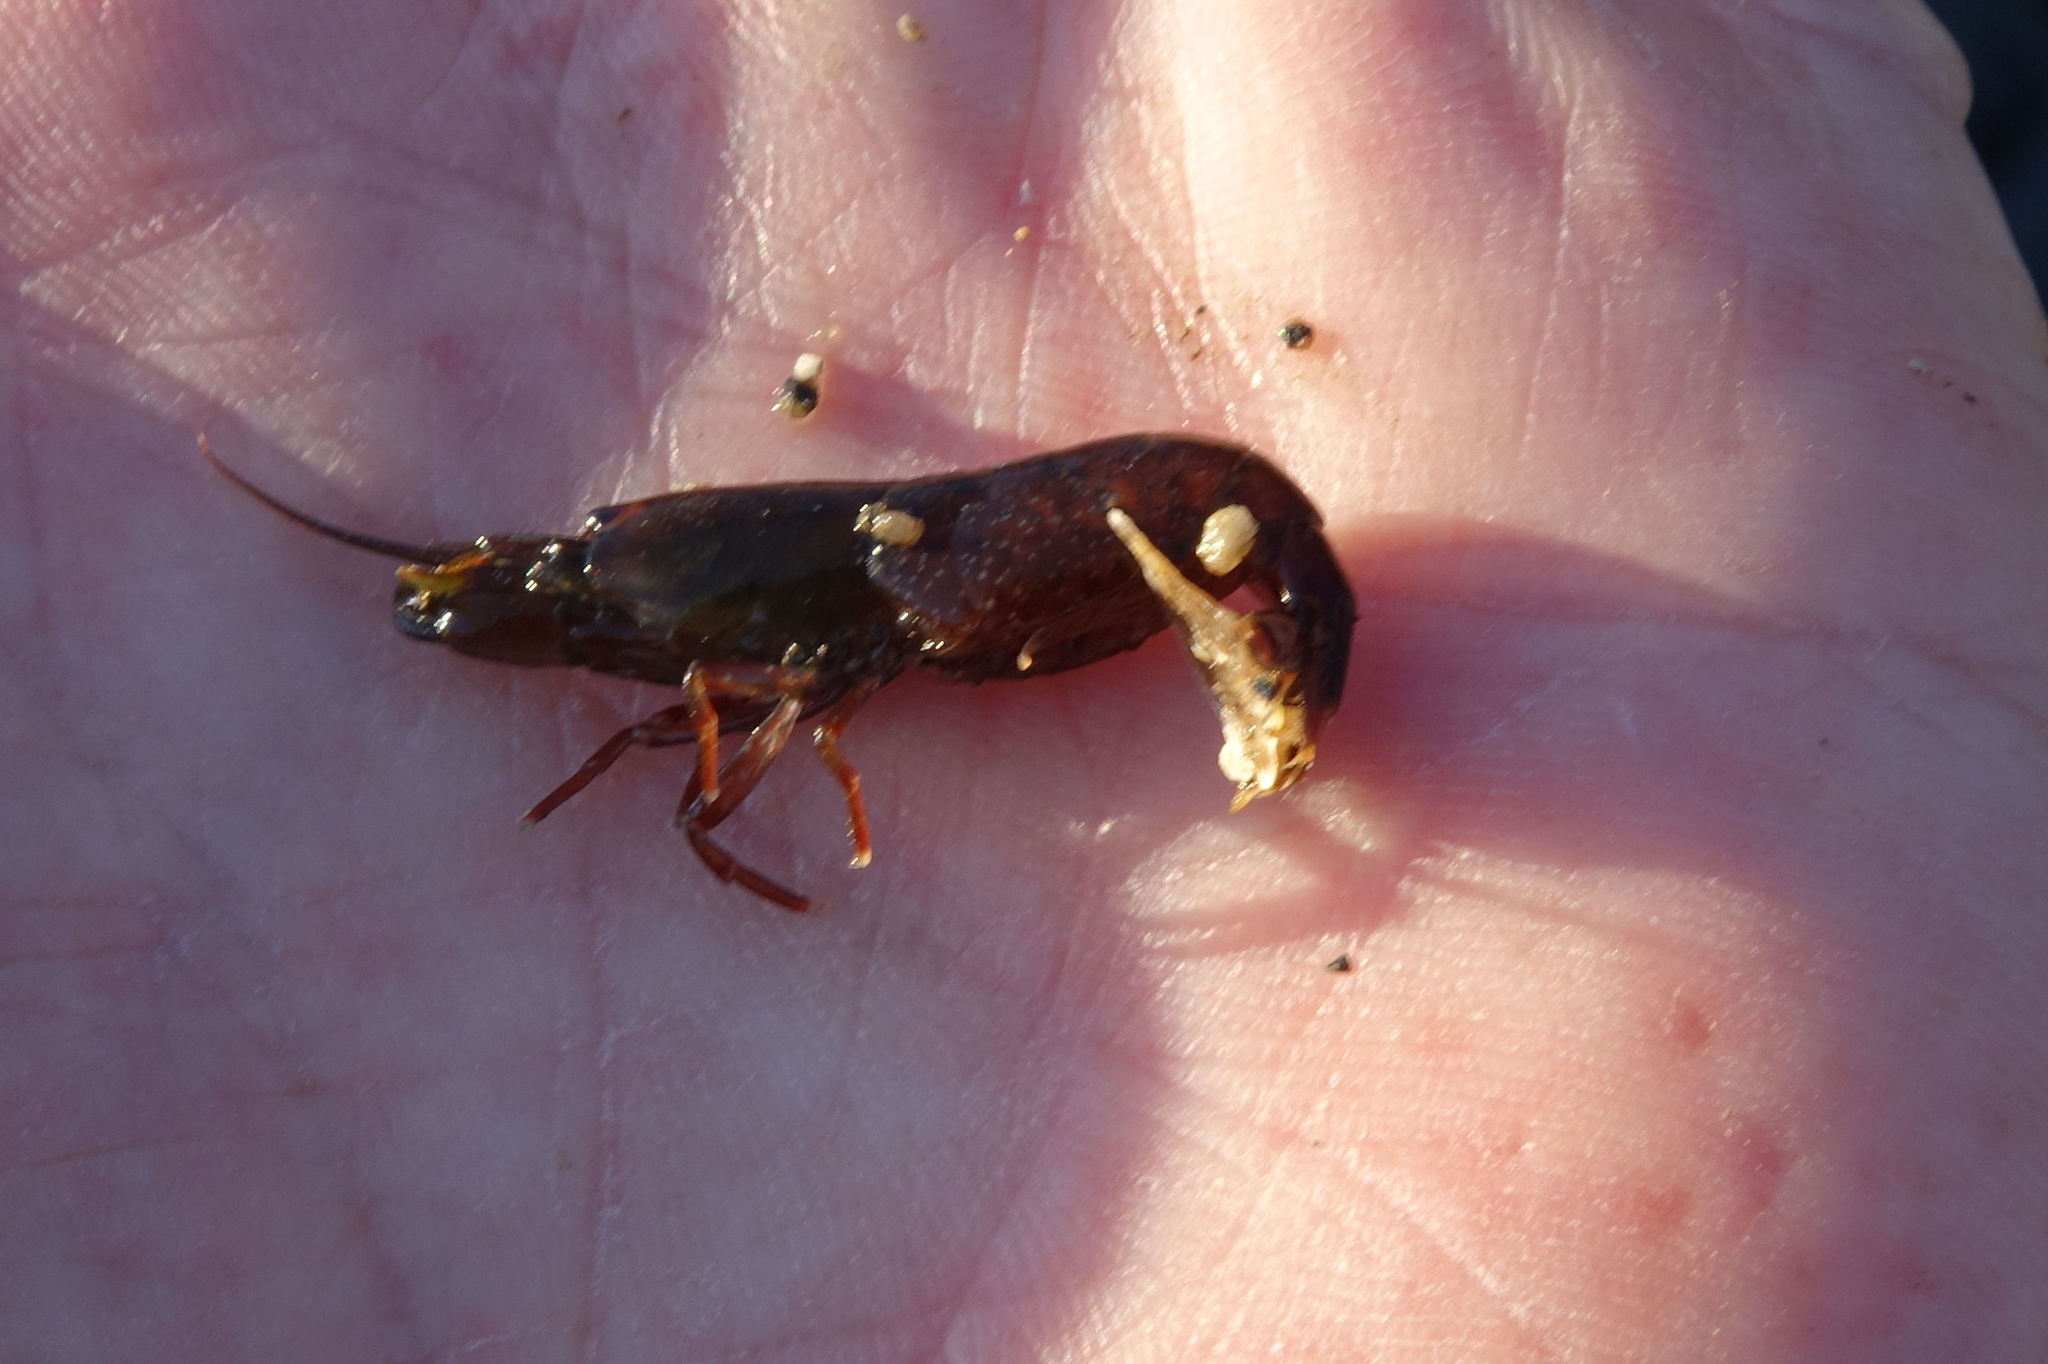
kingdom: Animalia
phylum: Arthropoda
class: Malacostraca
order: Decapoda
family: Alpheidae
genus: Betaeopsis
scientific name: Betaeopsis aequimanus
